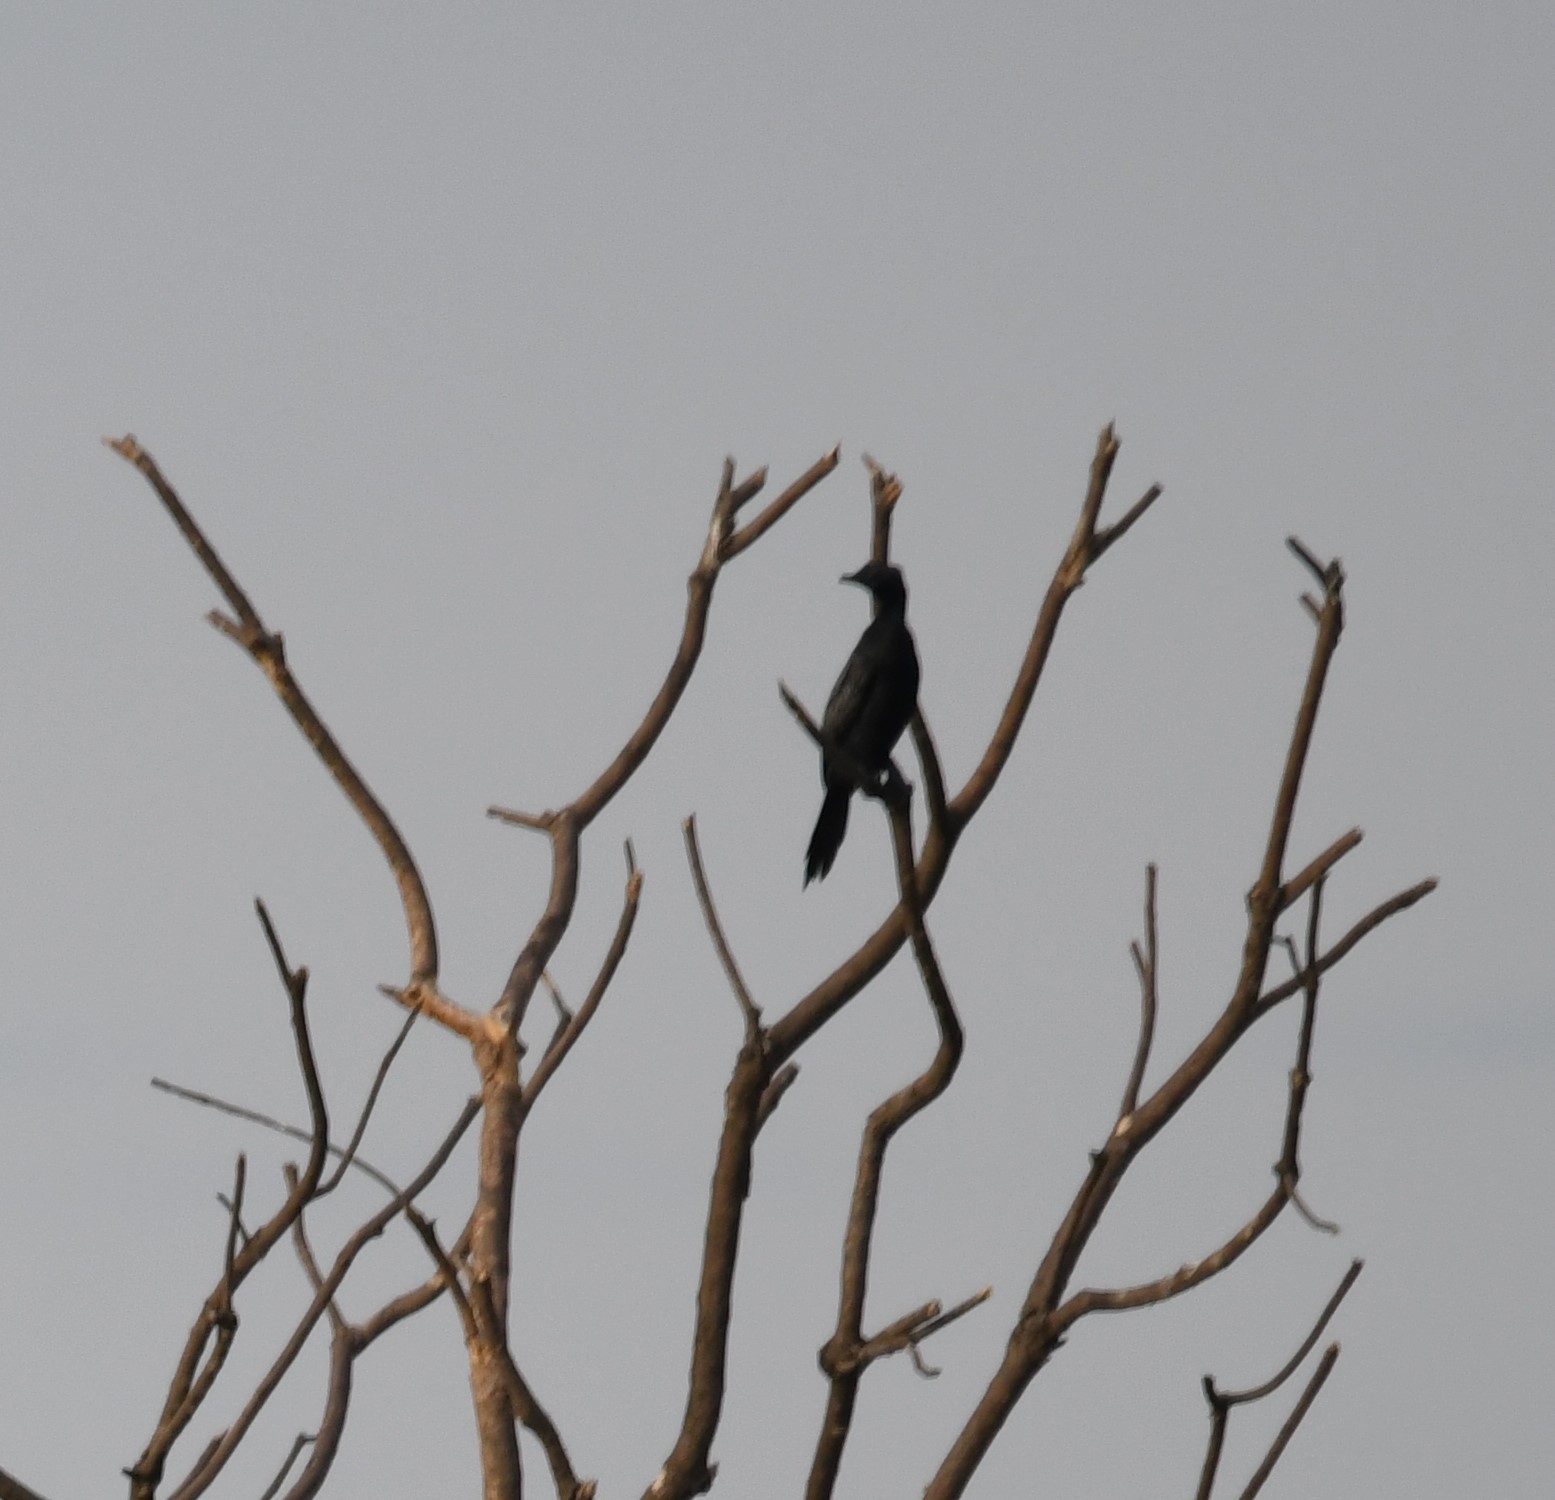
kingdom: Animalia
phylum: Chordata
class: Aves
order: Suliformes
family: Phalacrocoracidae
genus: Microcarbo
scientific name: Microcarbo niger
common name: Little cormorant
